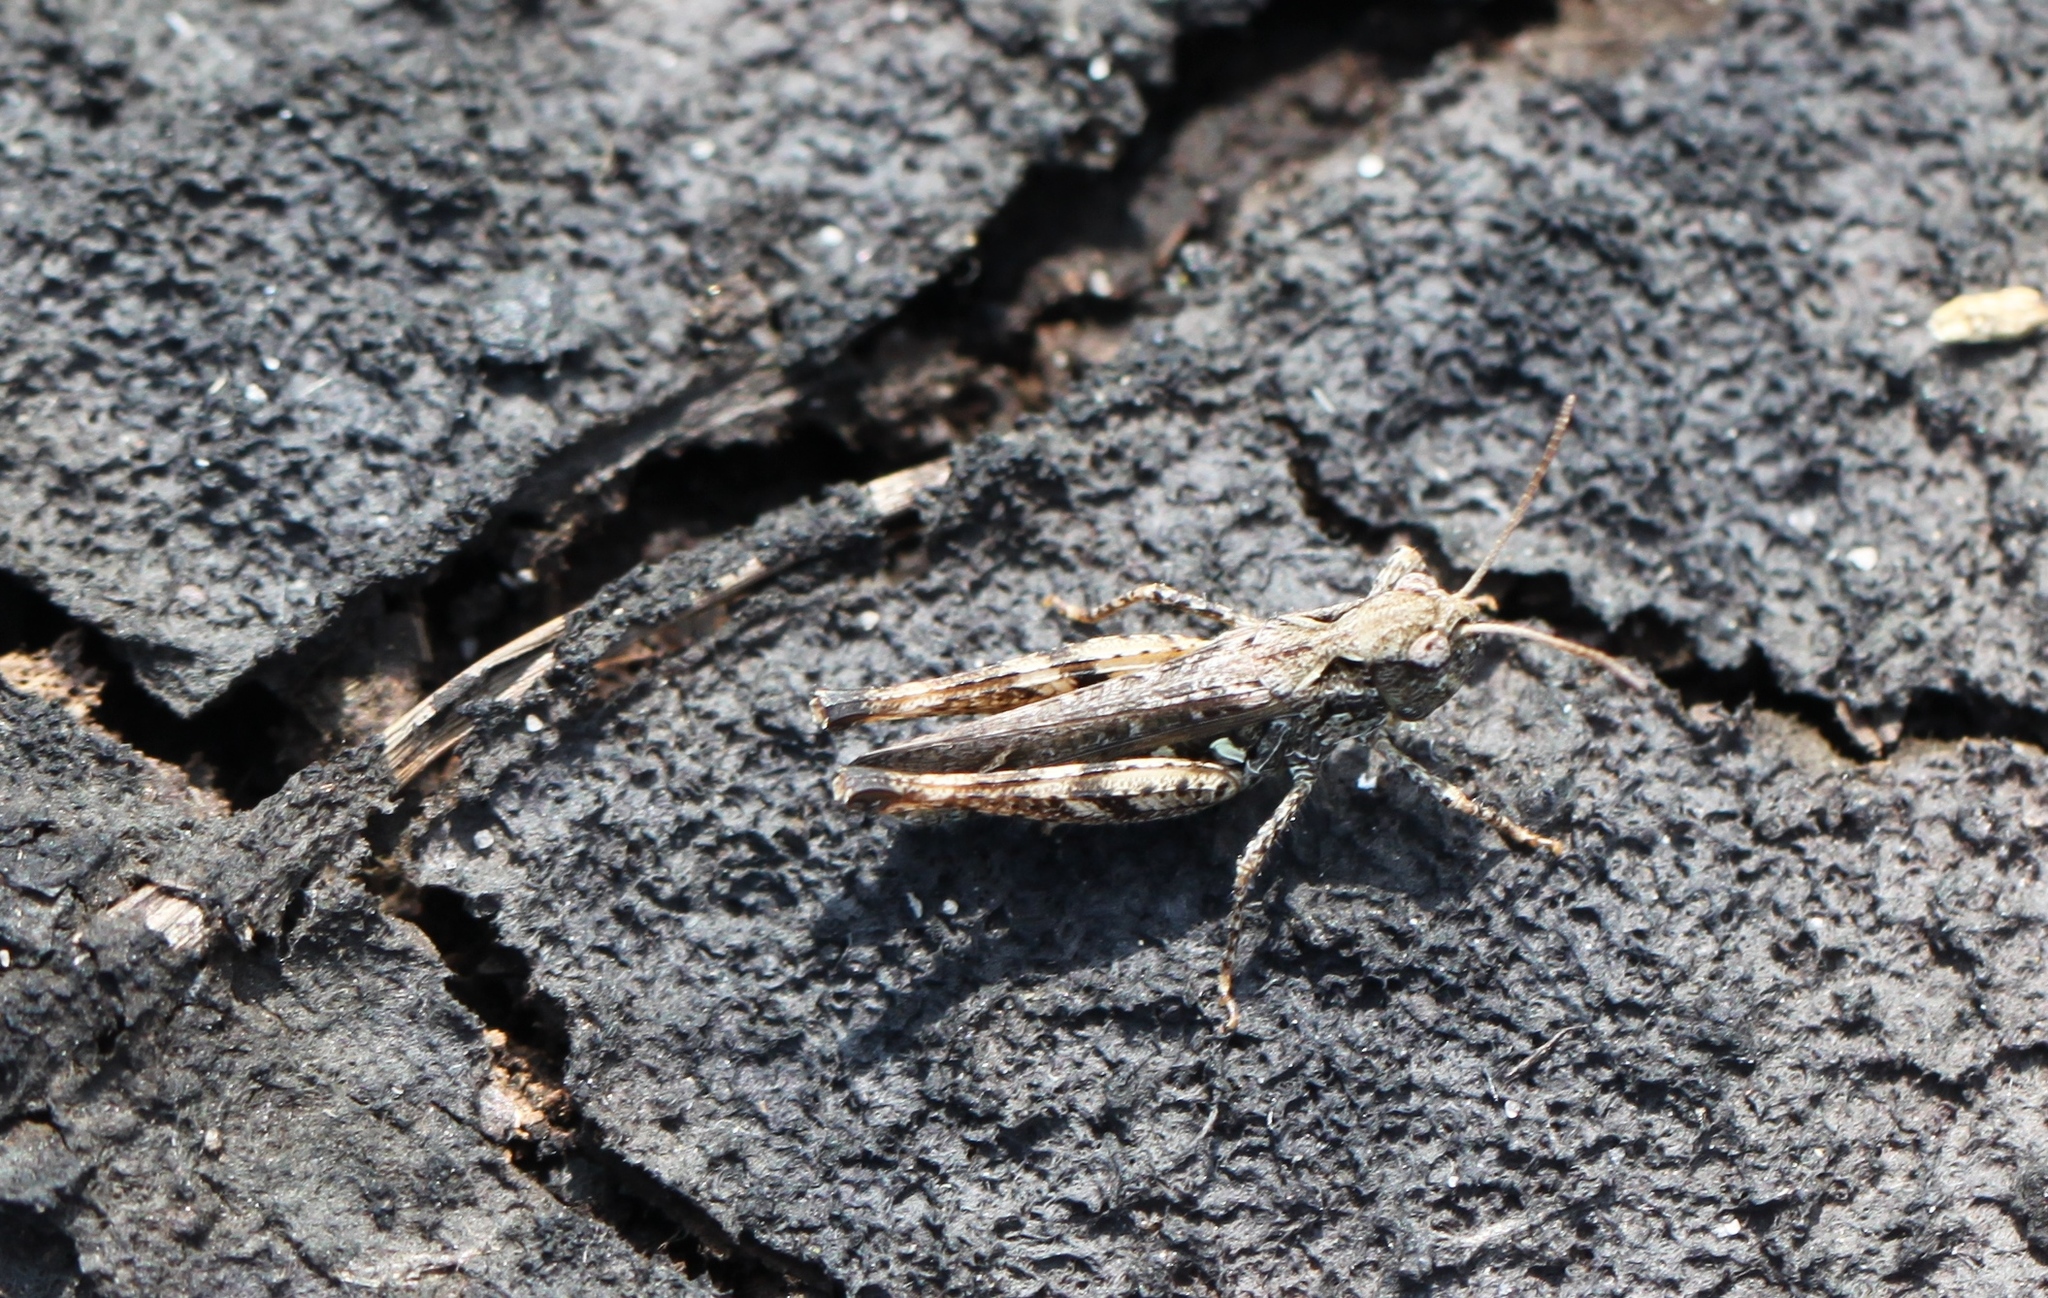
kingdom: Animalia
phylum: Arthropoda
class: Insecta
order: Orthoptera
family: Acrididae
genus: Myrmeleotettix
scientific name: Myrmeleotettix maculatus
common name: Mottled grasshopper
